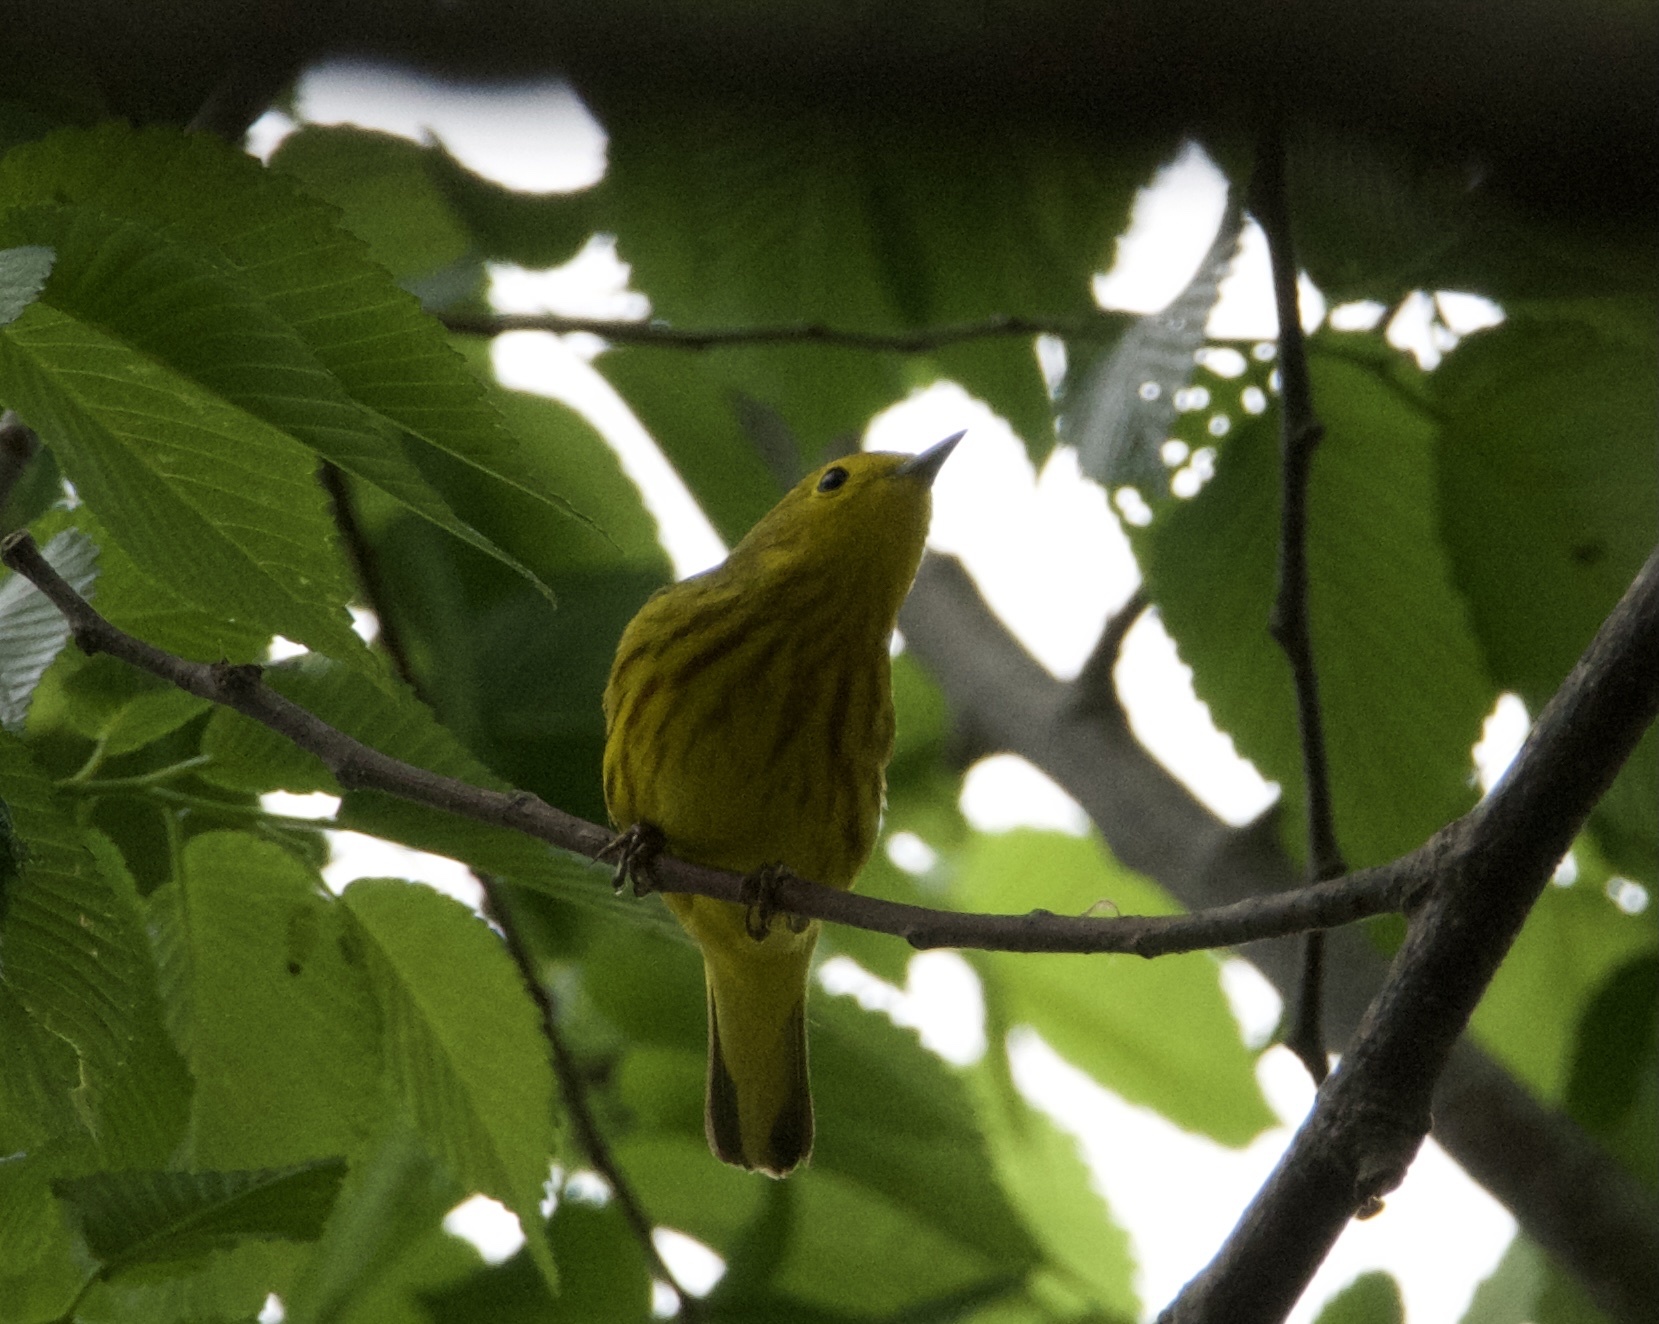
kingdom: Animalia
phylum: Chordata
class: Aves
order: Passeriformes
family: Parulidae
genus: Setophaga
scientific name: Setophaga petechia
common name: Yellow warbler
